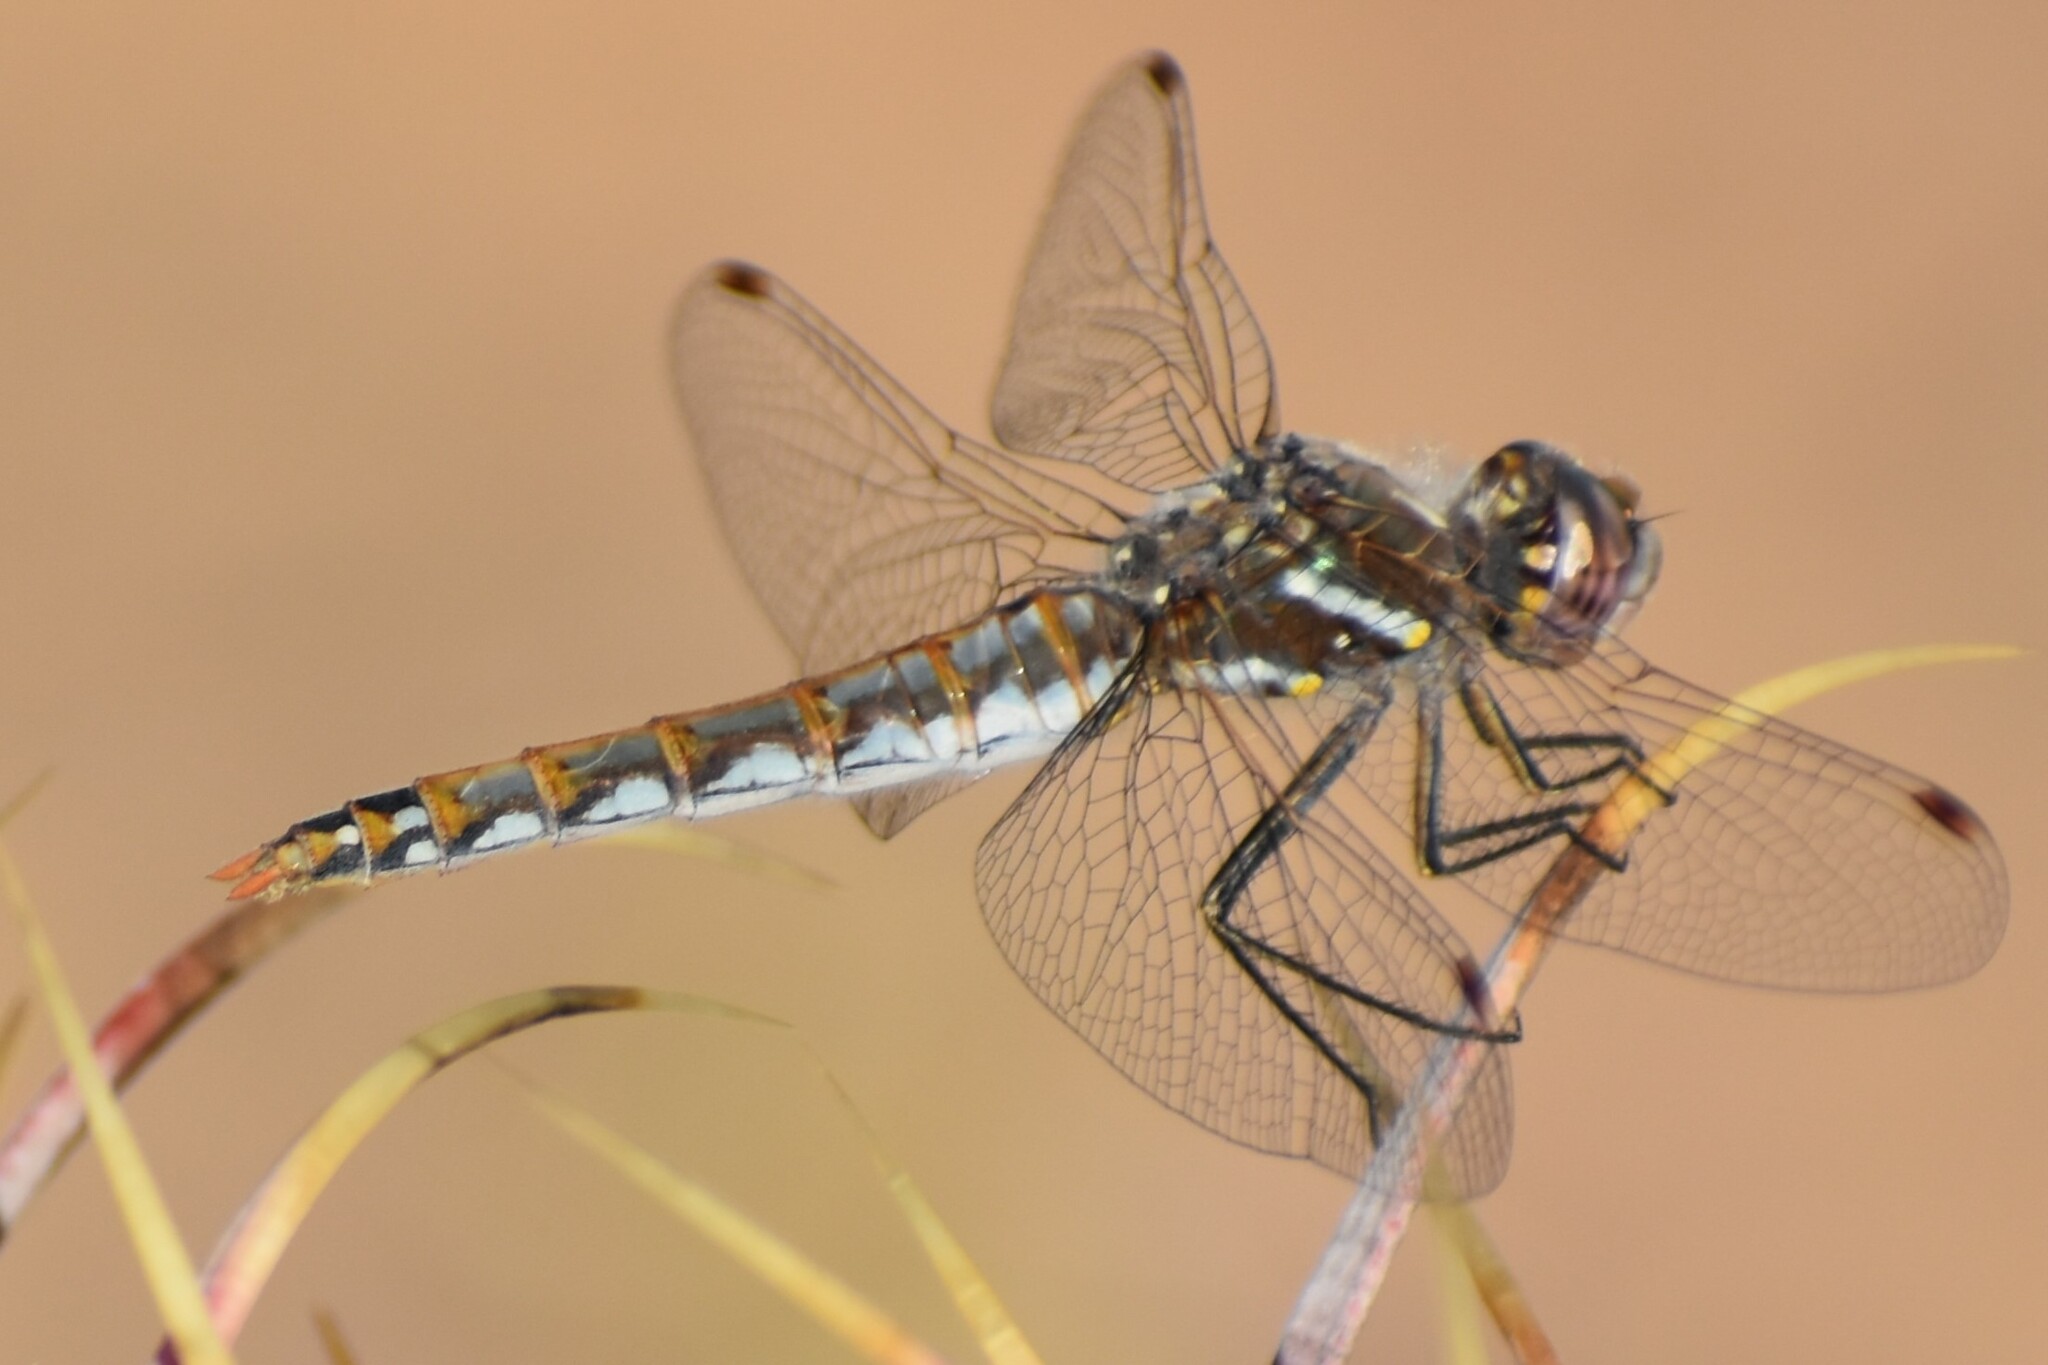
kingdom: Animalia
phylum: Arthropoda
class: Insecta
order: Odonata
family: Libellulidae
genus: Sympetrum
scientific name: Sympetrum corruptum
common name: Variegated meadowhawk
